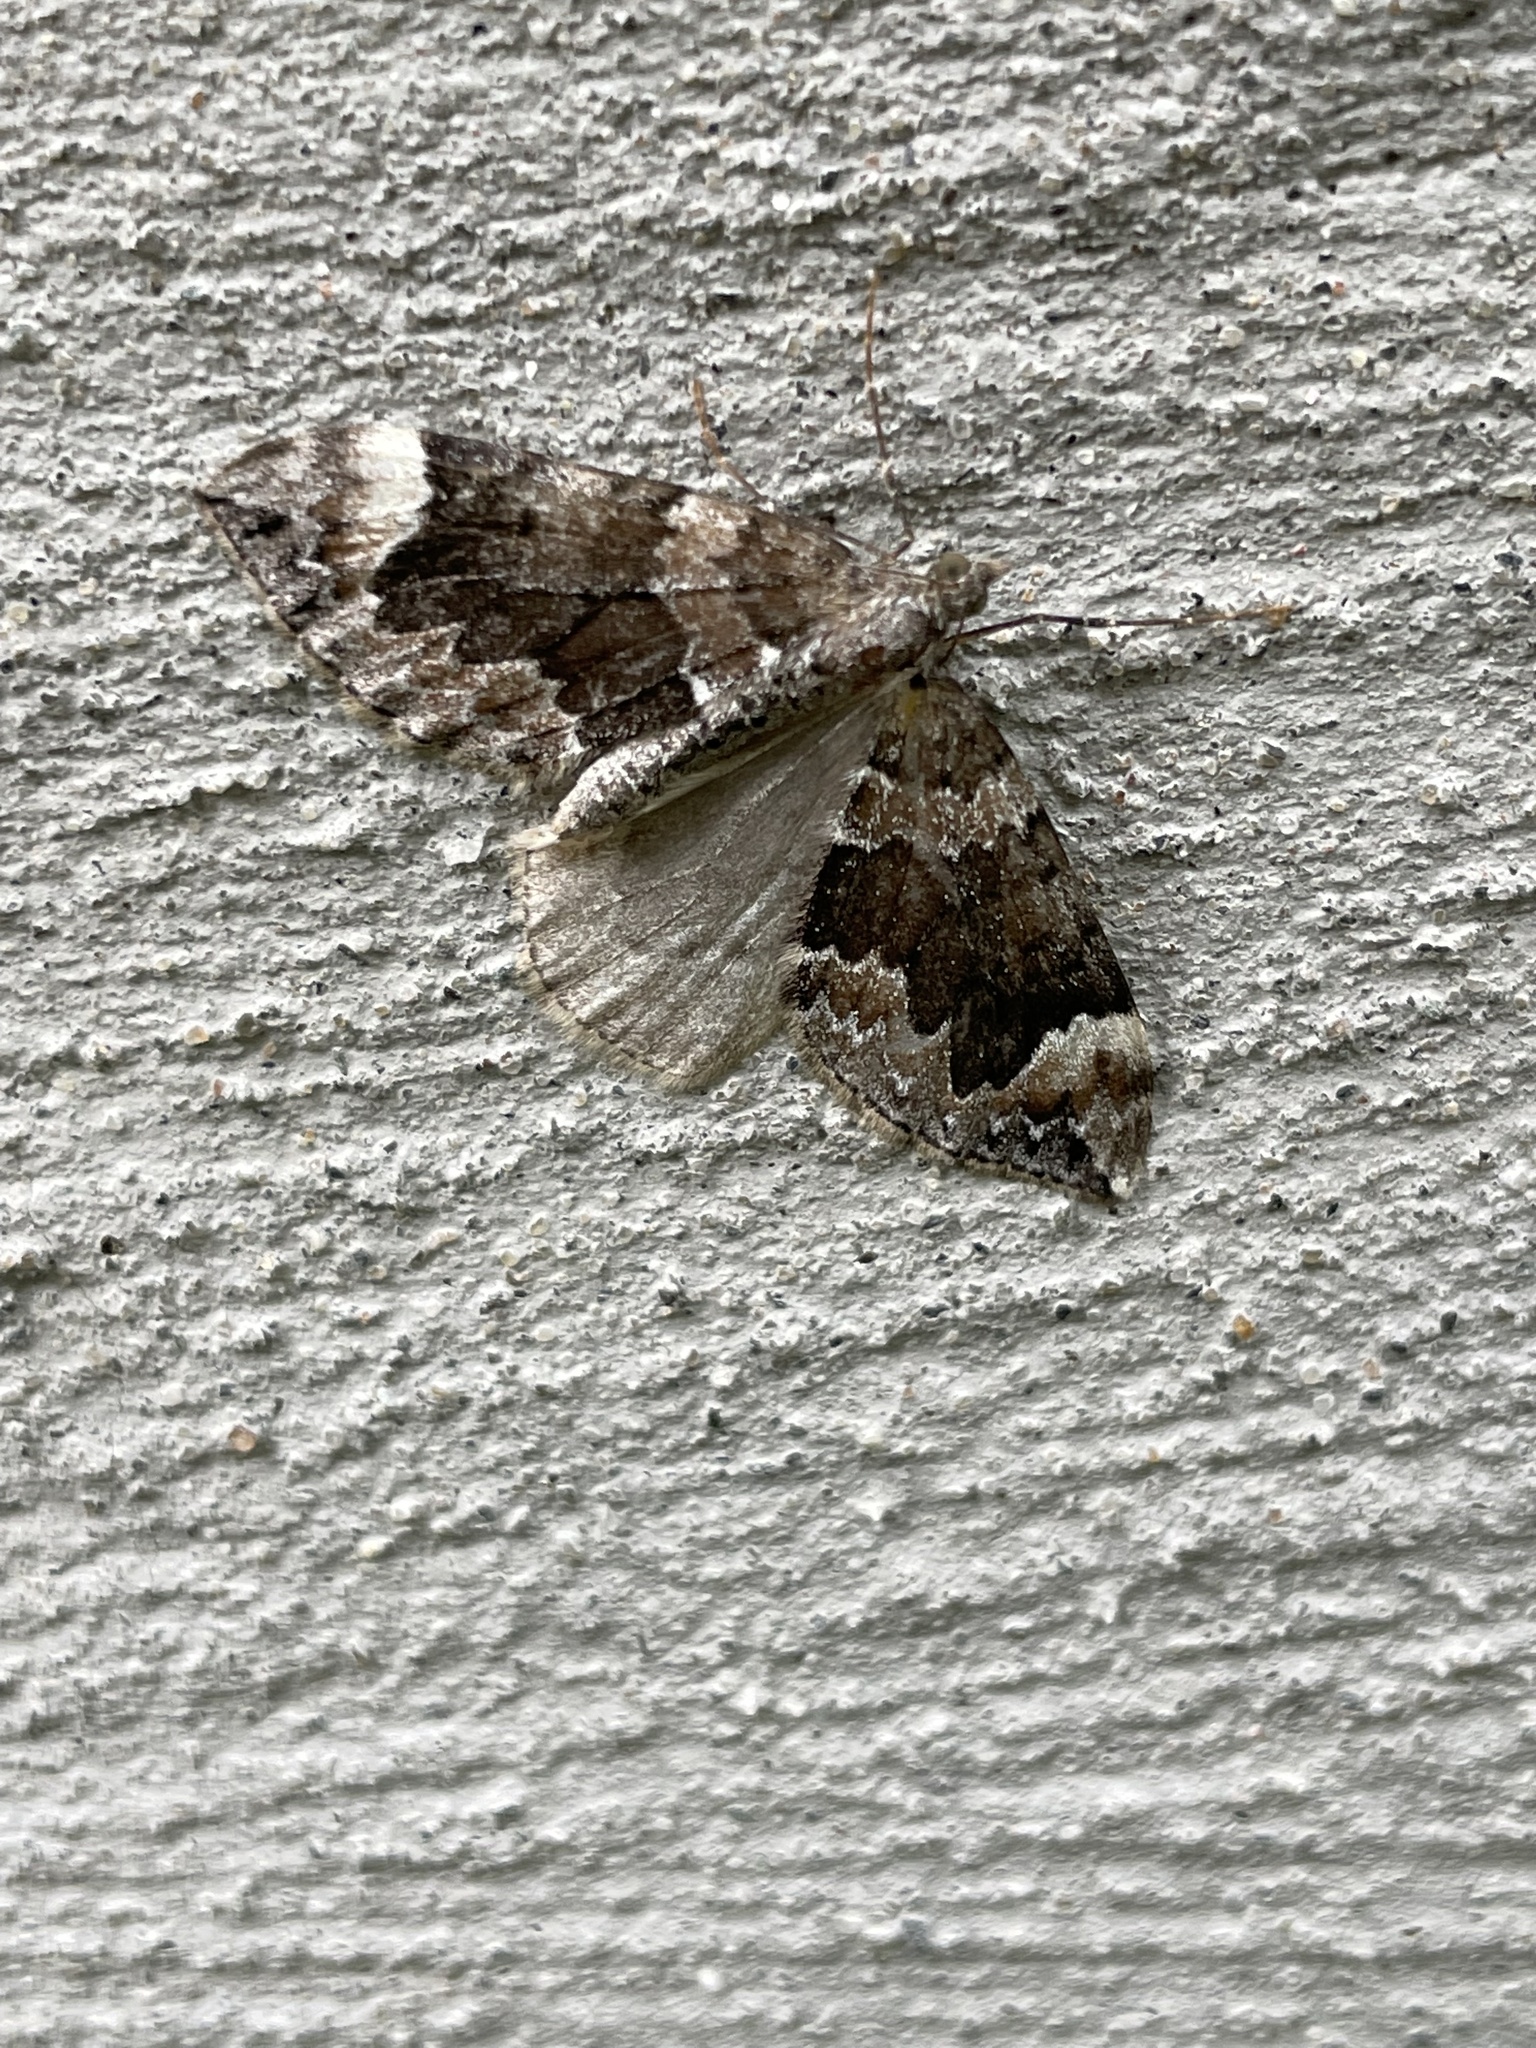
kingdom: Animalia
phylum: Arthropoda
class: Insecta
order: Lepidoptera
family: Geometridae
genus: Dysstroma
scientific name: Dysstroma citrata
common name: Dark marbled carpet
